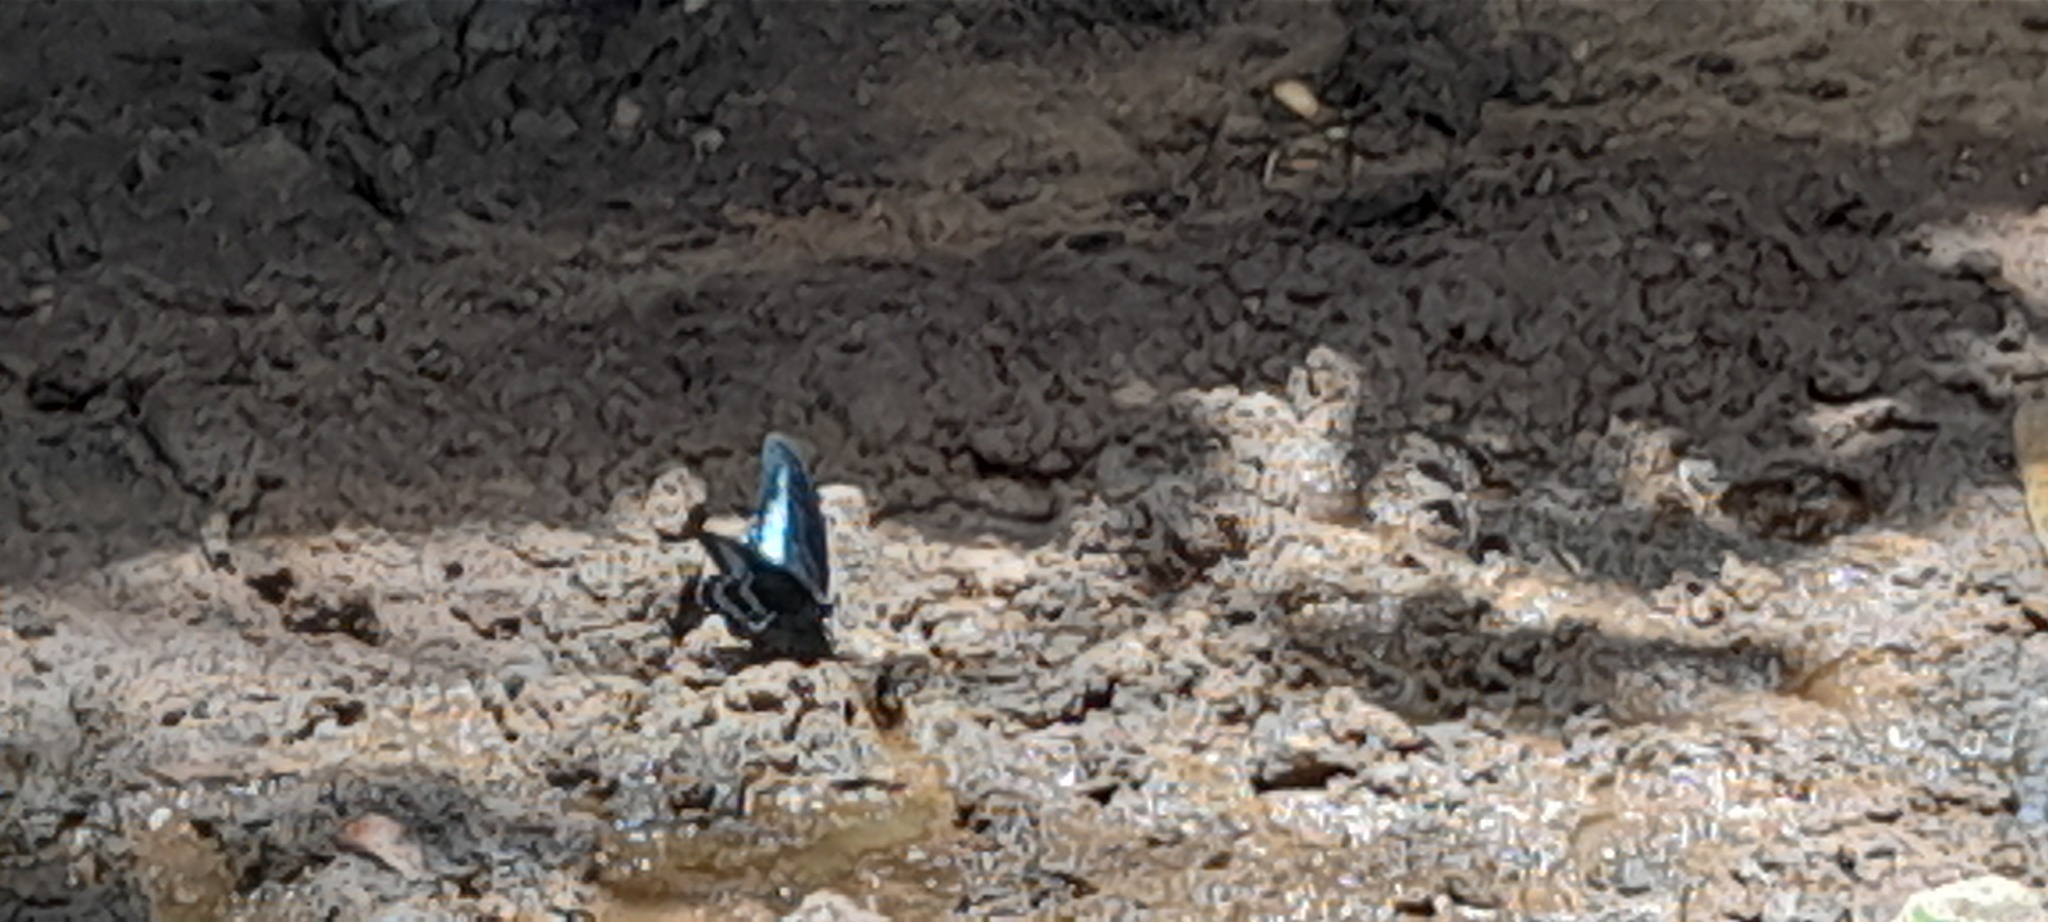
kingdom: Animalia
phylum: Arthropoda
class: Insecta
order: Lepidoptera
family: Papilionidae
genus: Papilio
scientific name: Papilio memnon
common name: Great mormon
